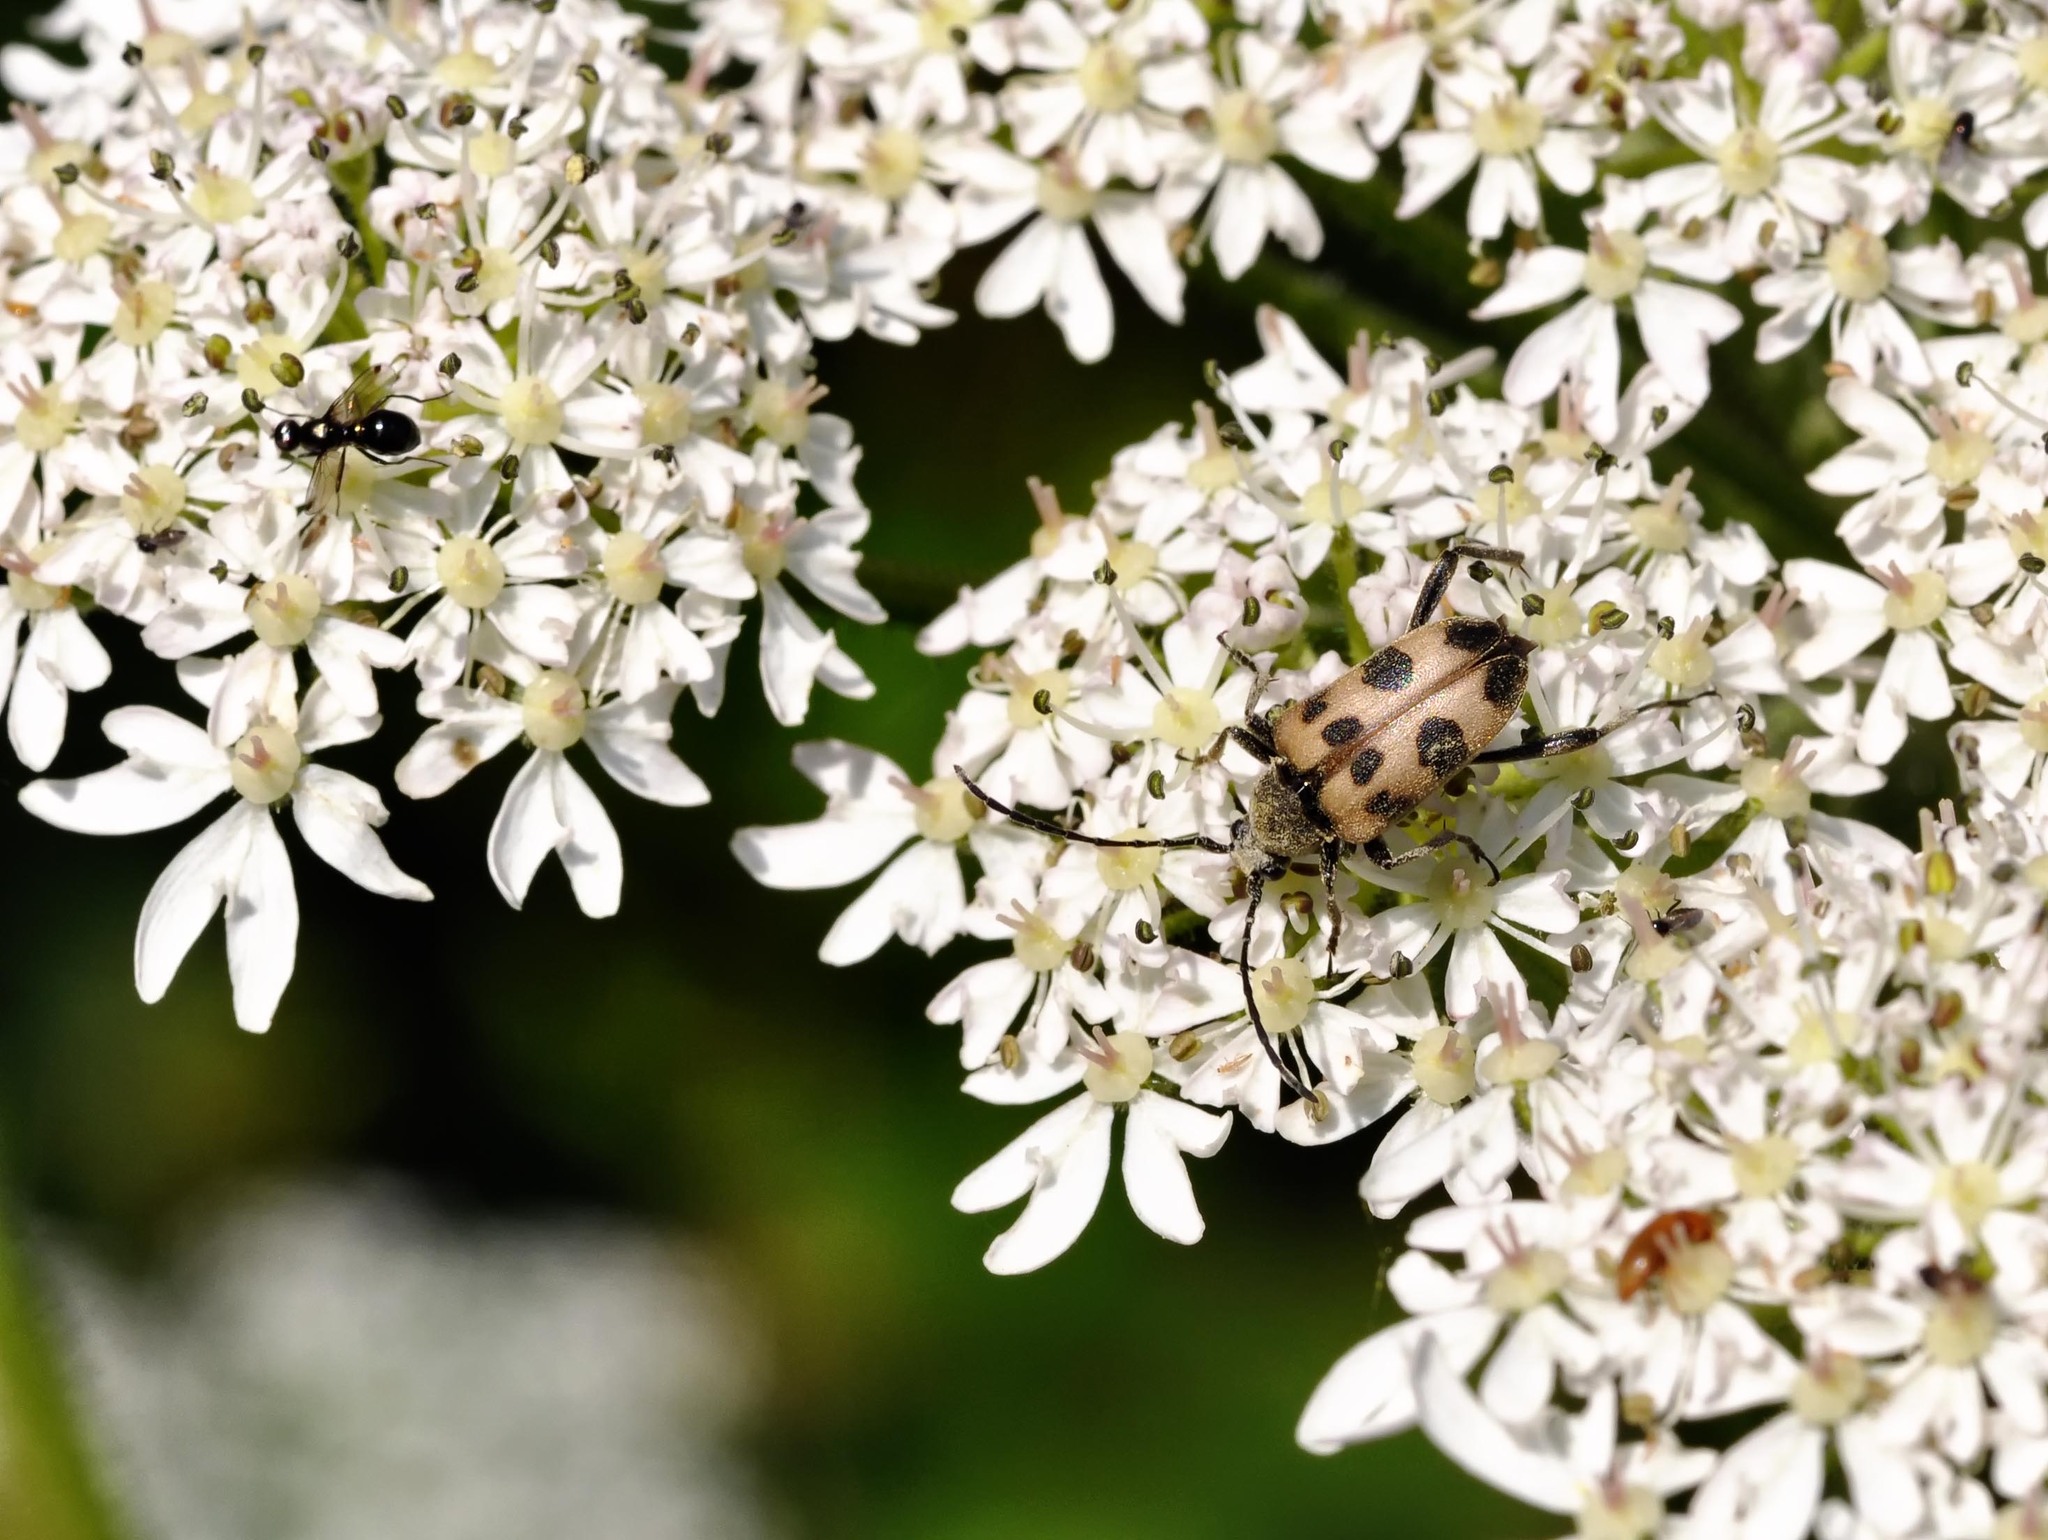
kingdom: Animalia
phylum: Arthropoda
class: Insecta
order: Coleoptera
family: Cerambycidae
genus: Pachytodes
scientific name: Pachytodes cerambyciformis
